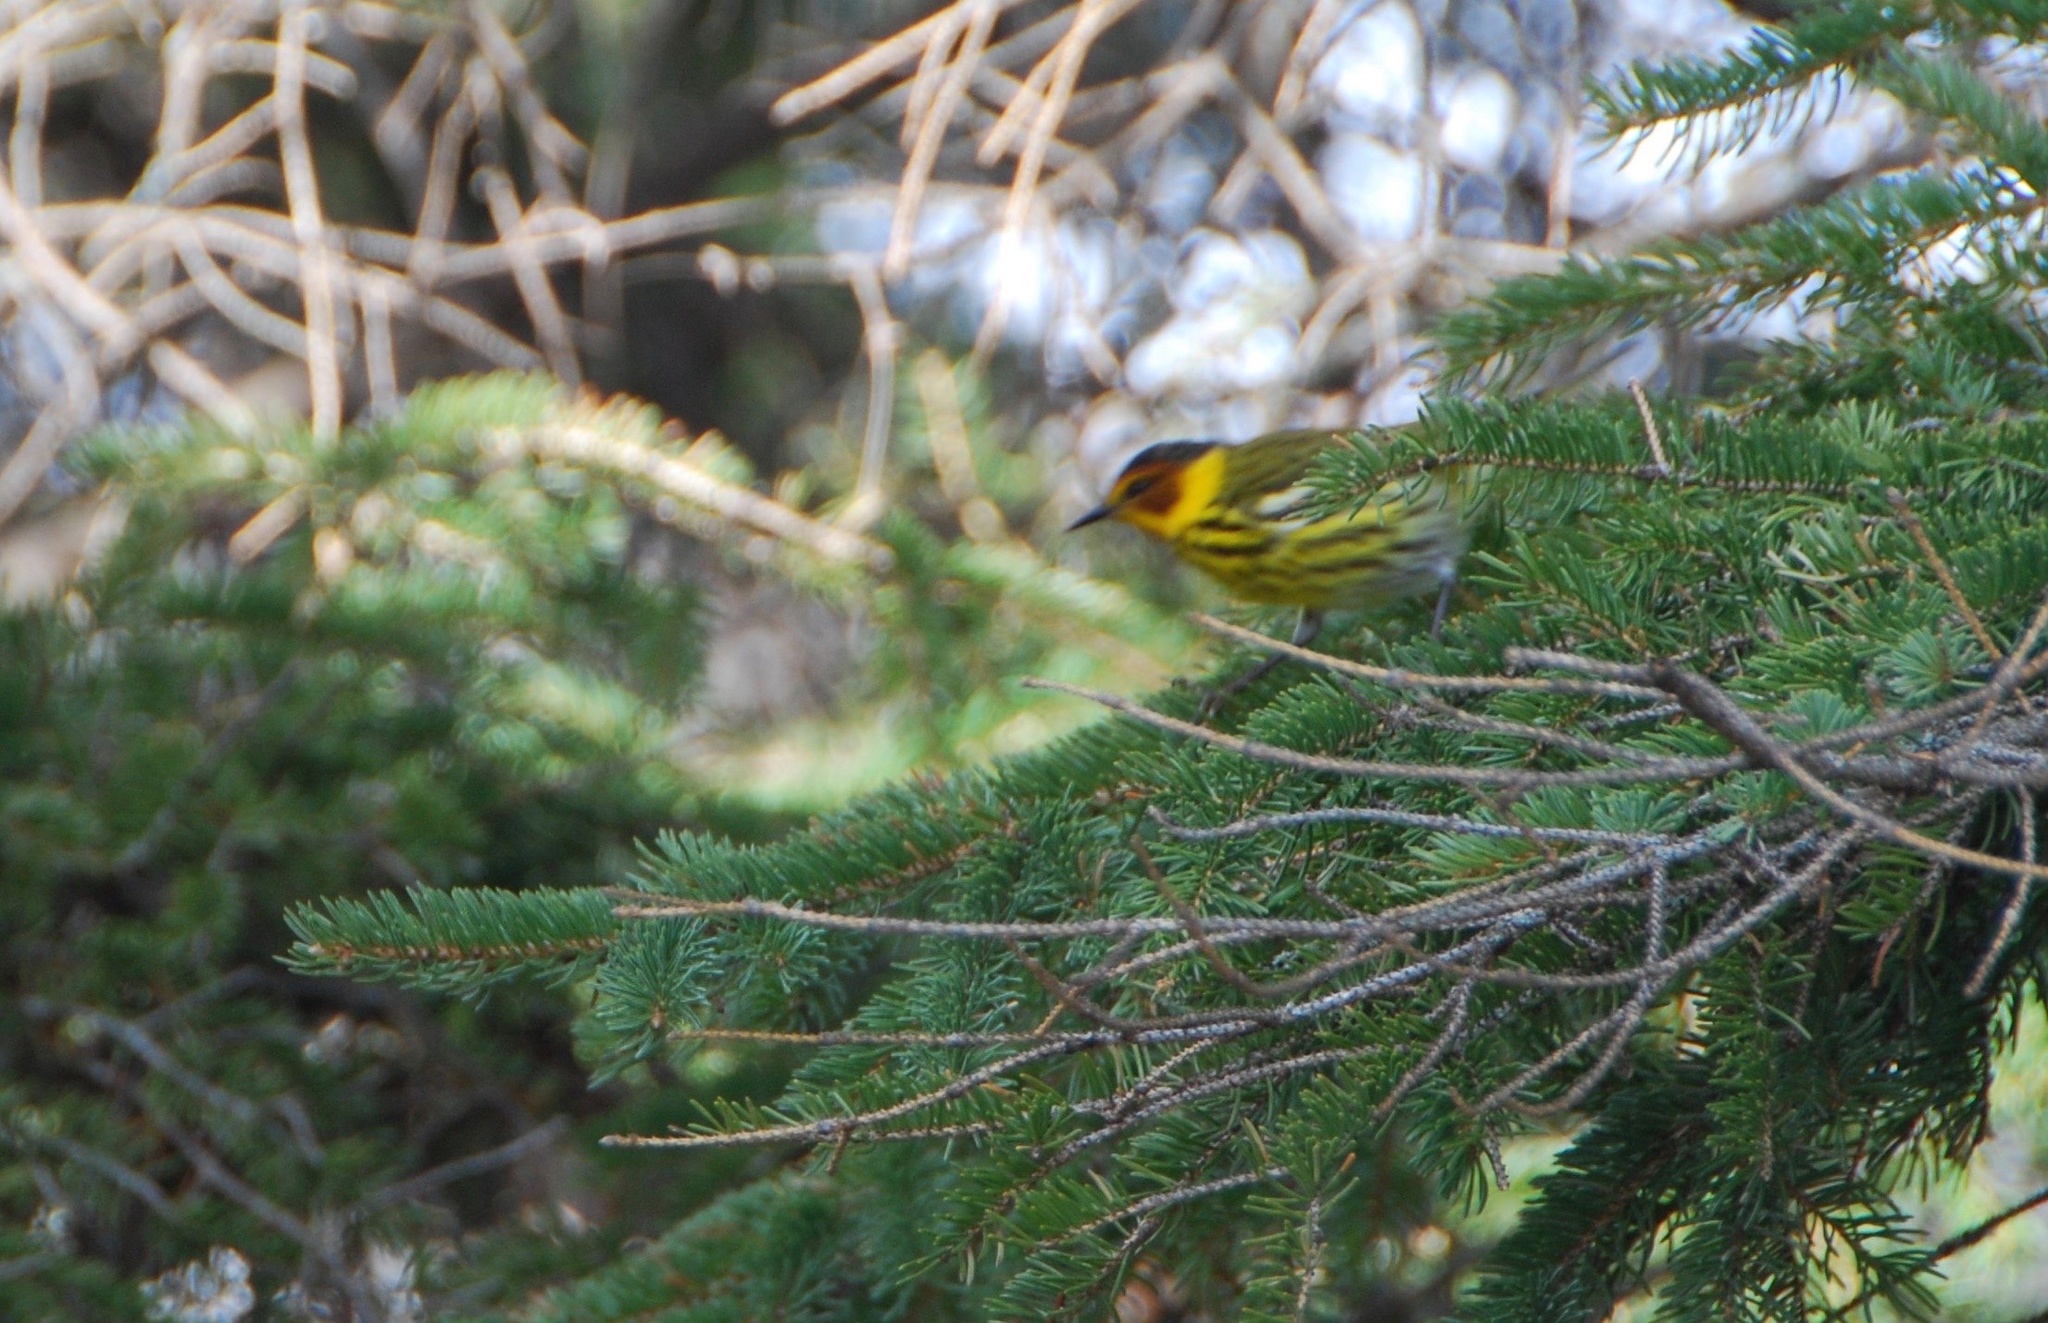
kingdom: Animalia
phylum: Chordata
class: Aves
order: Passeriformes
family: Parulidae
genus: Setophaga
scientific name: Setophaga tigrina
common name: Cape may warbler
